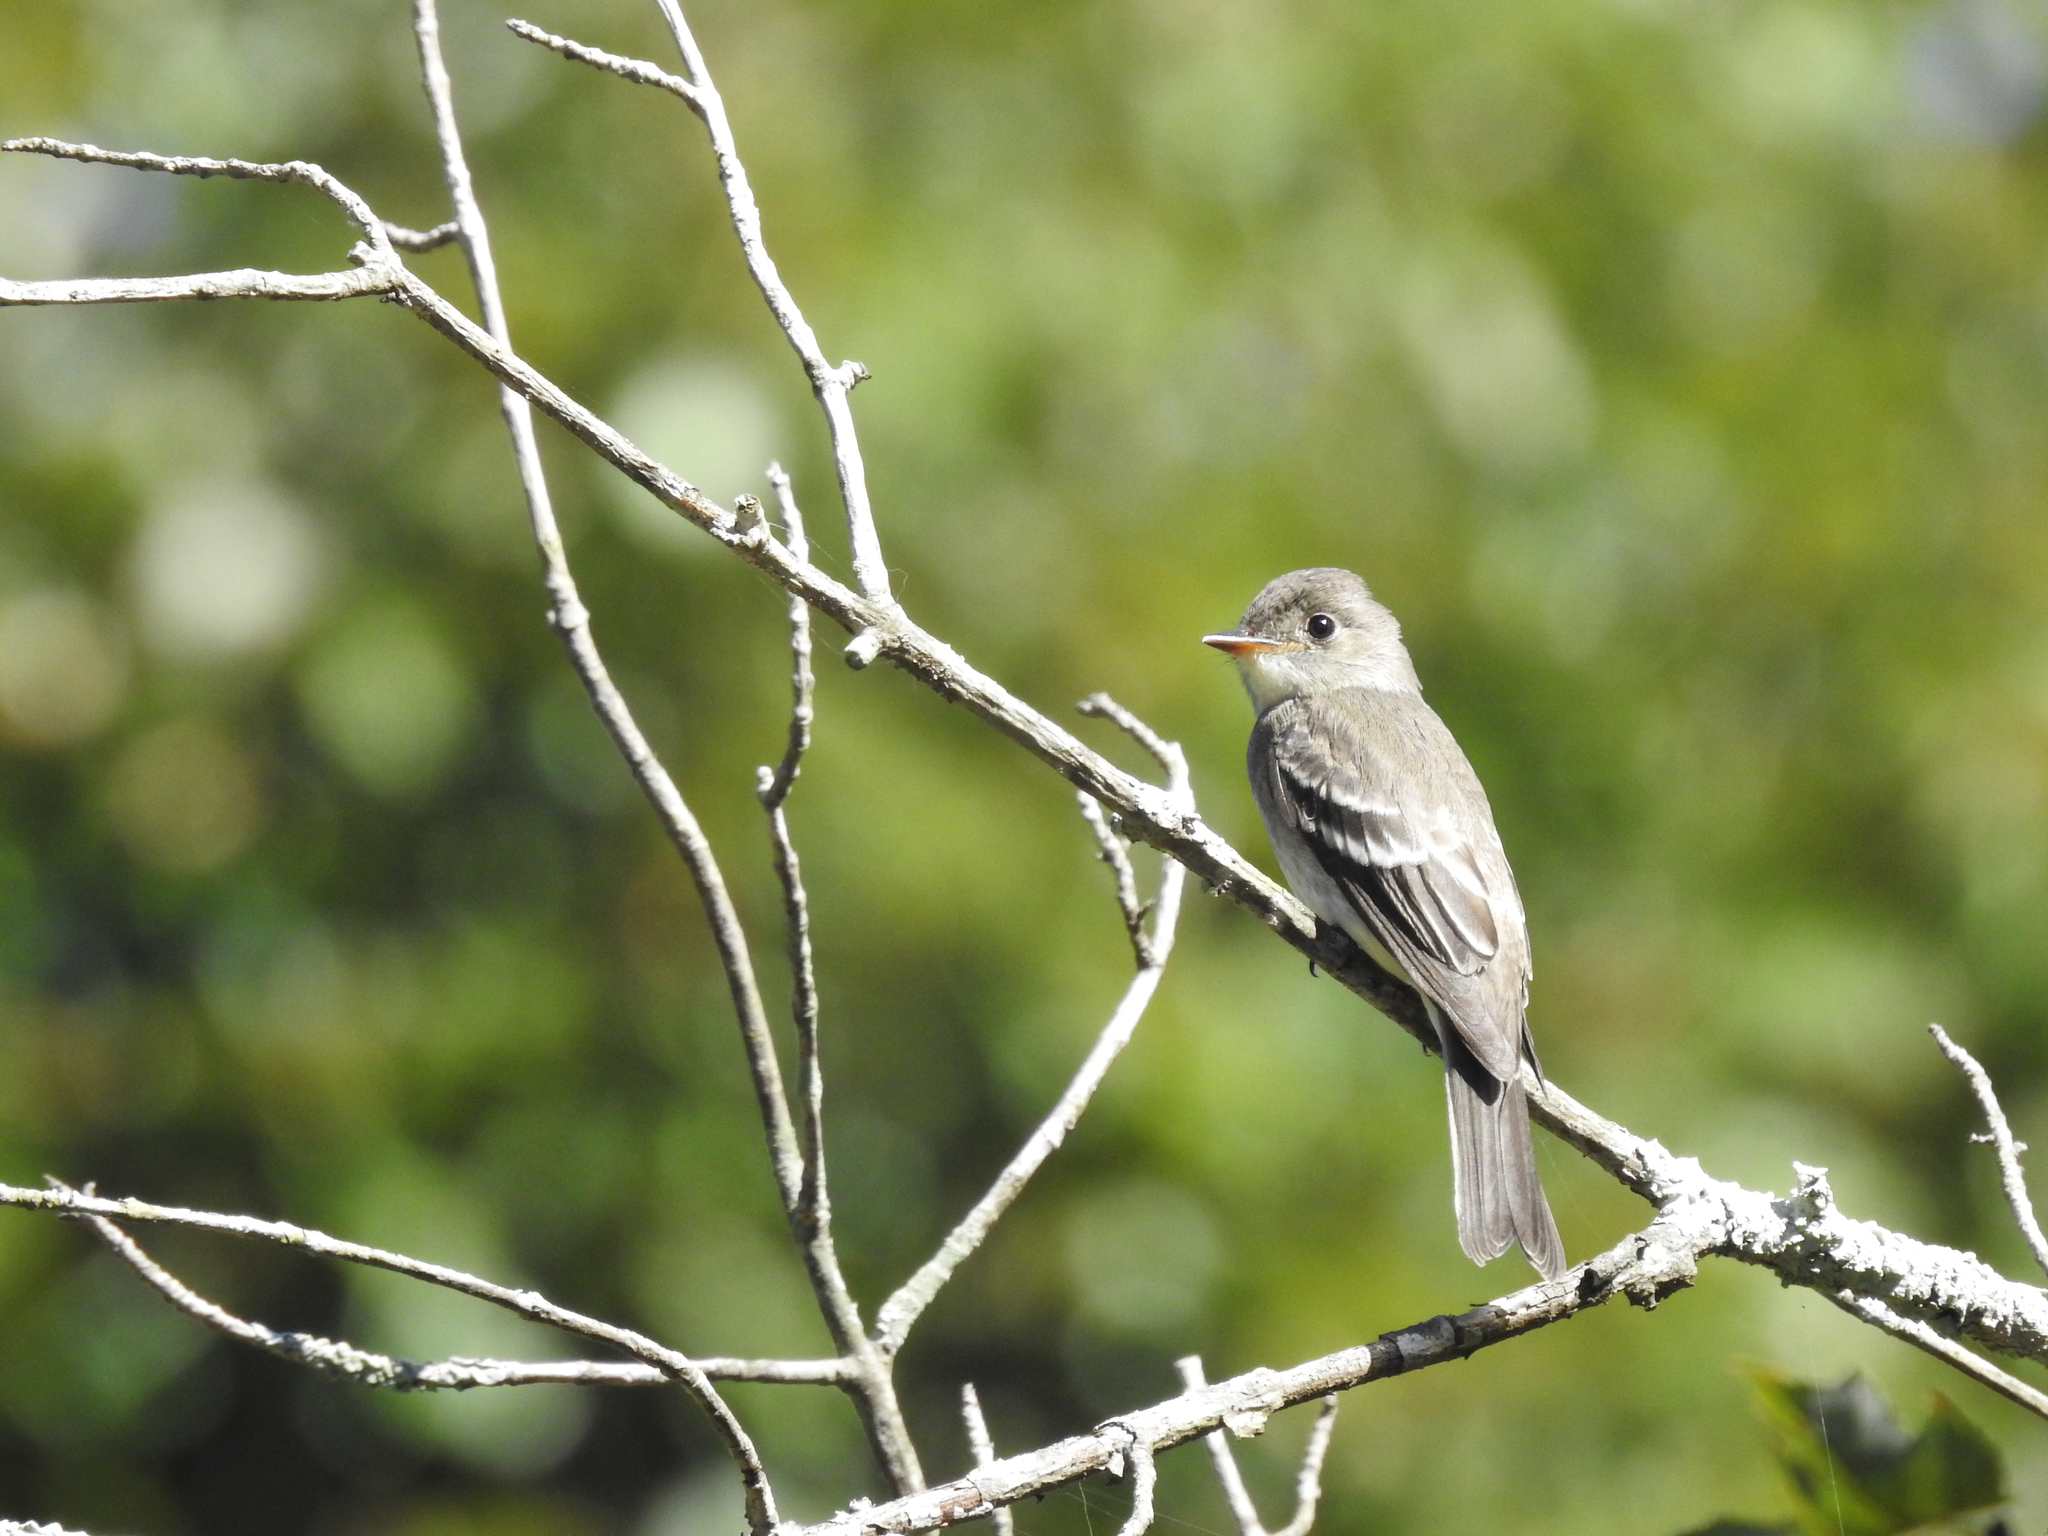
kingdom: Animalia
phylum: Chordata
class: Aves
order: Passeriformes
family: Tyrannidae
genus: Contopus
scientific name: Contopus virens
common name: Eastern wood-pewee
